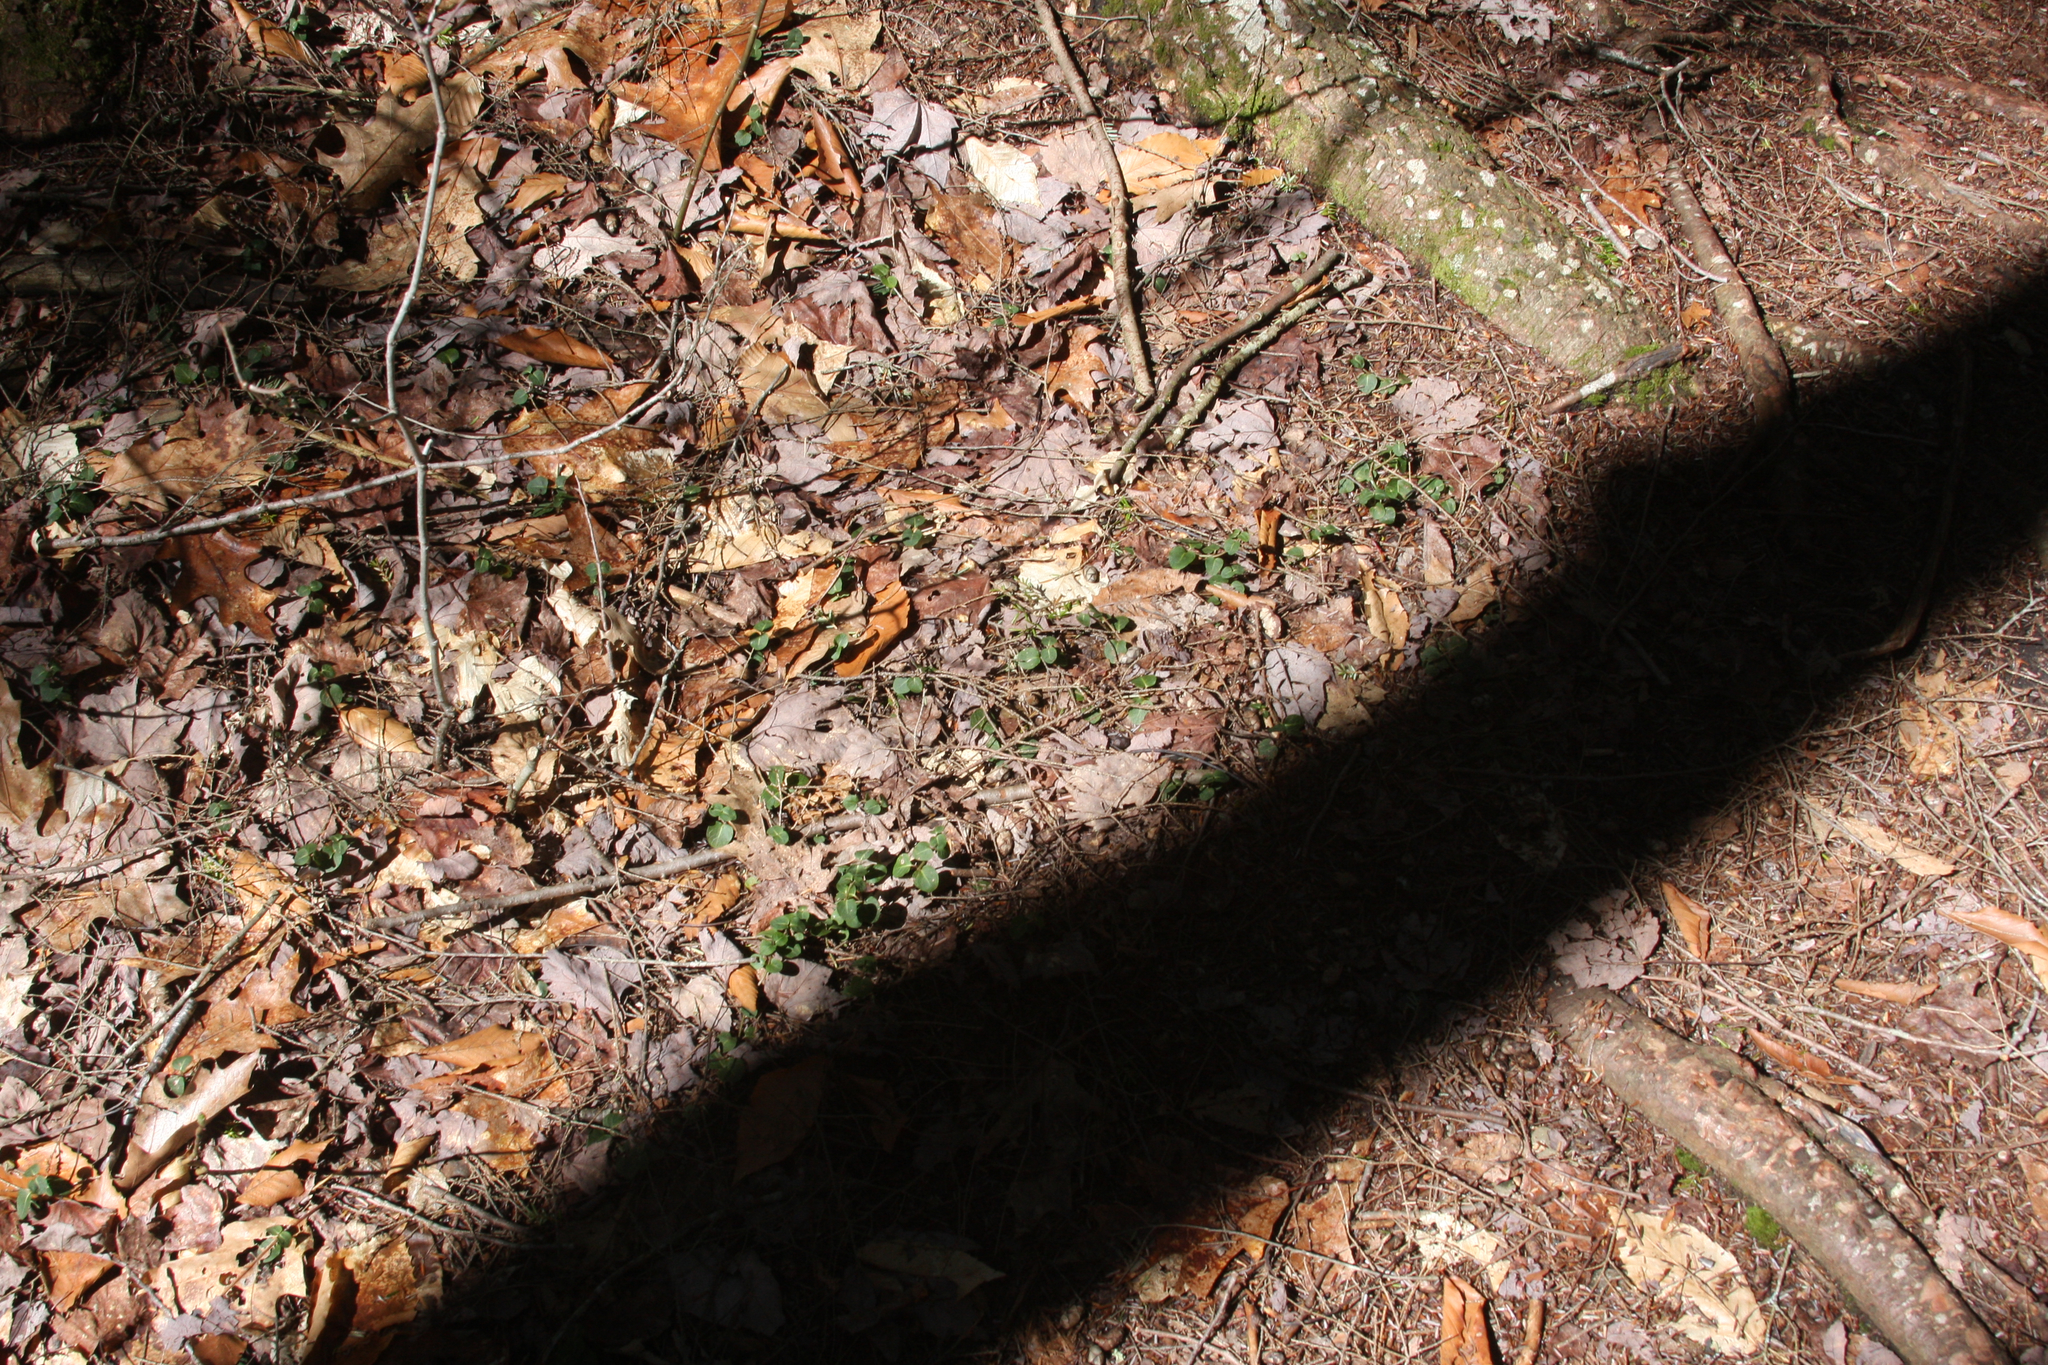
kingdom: Plantae
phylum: Tracheophyta
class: Magnoliopsida
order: Gentianales
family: Rubiaceae
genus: Mitchella
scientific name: Mitchella repens
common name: Partridge-berry
